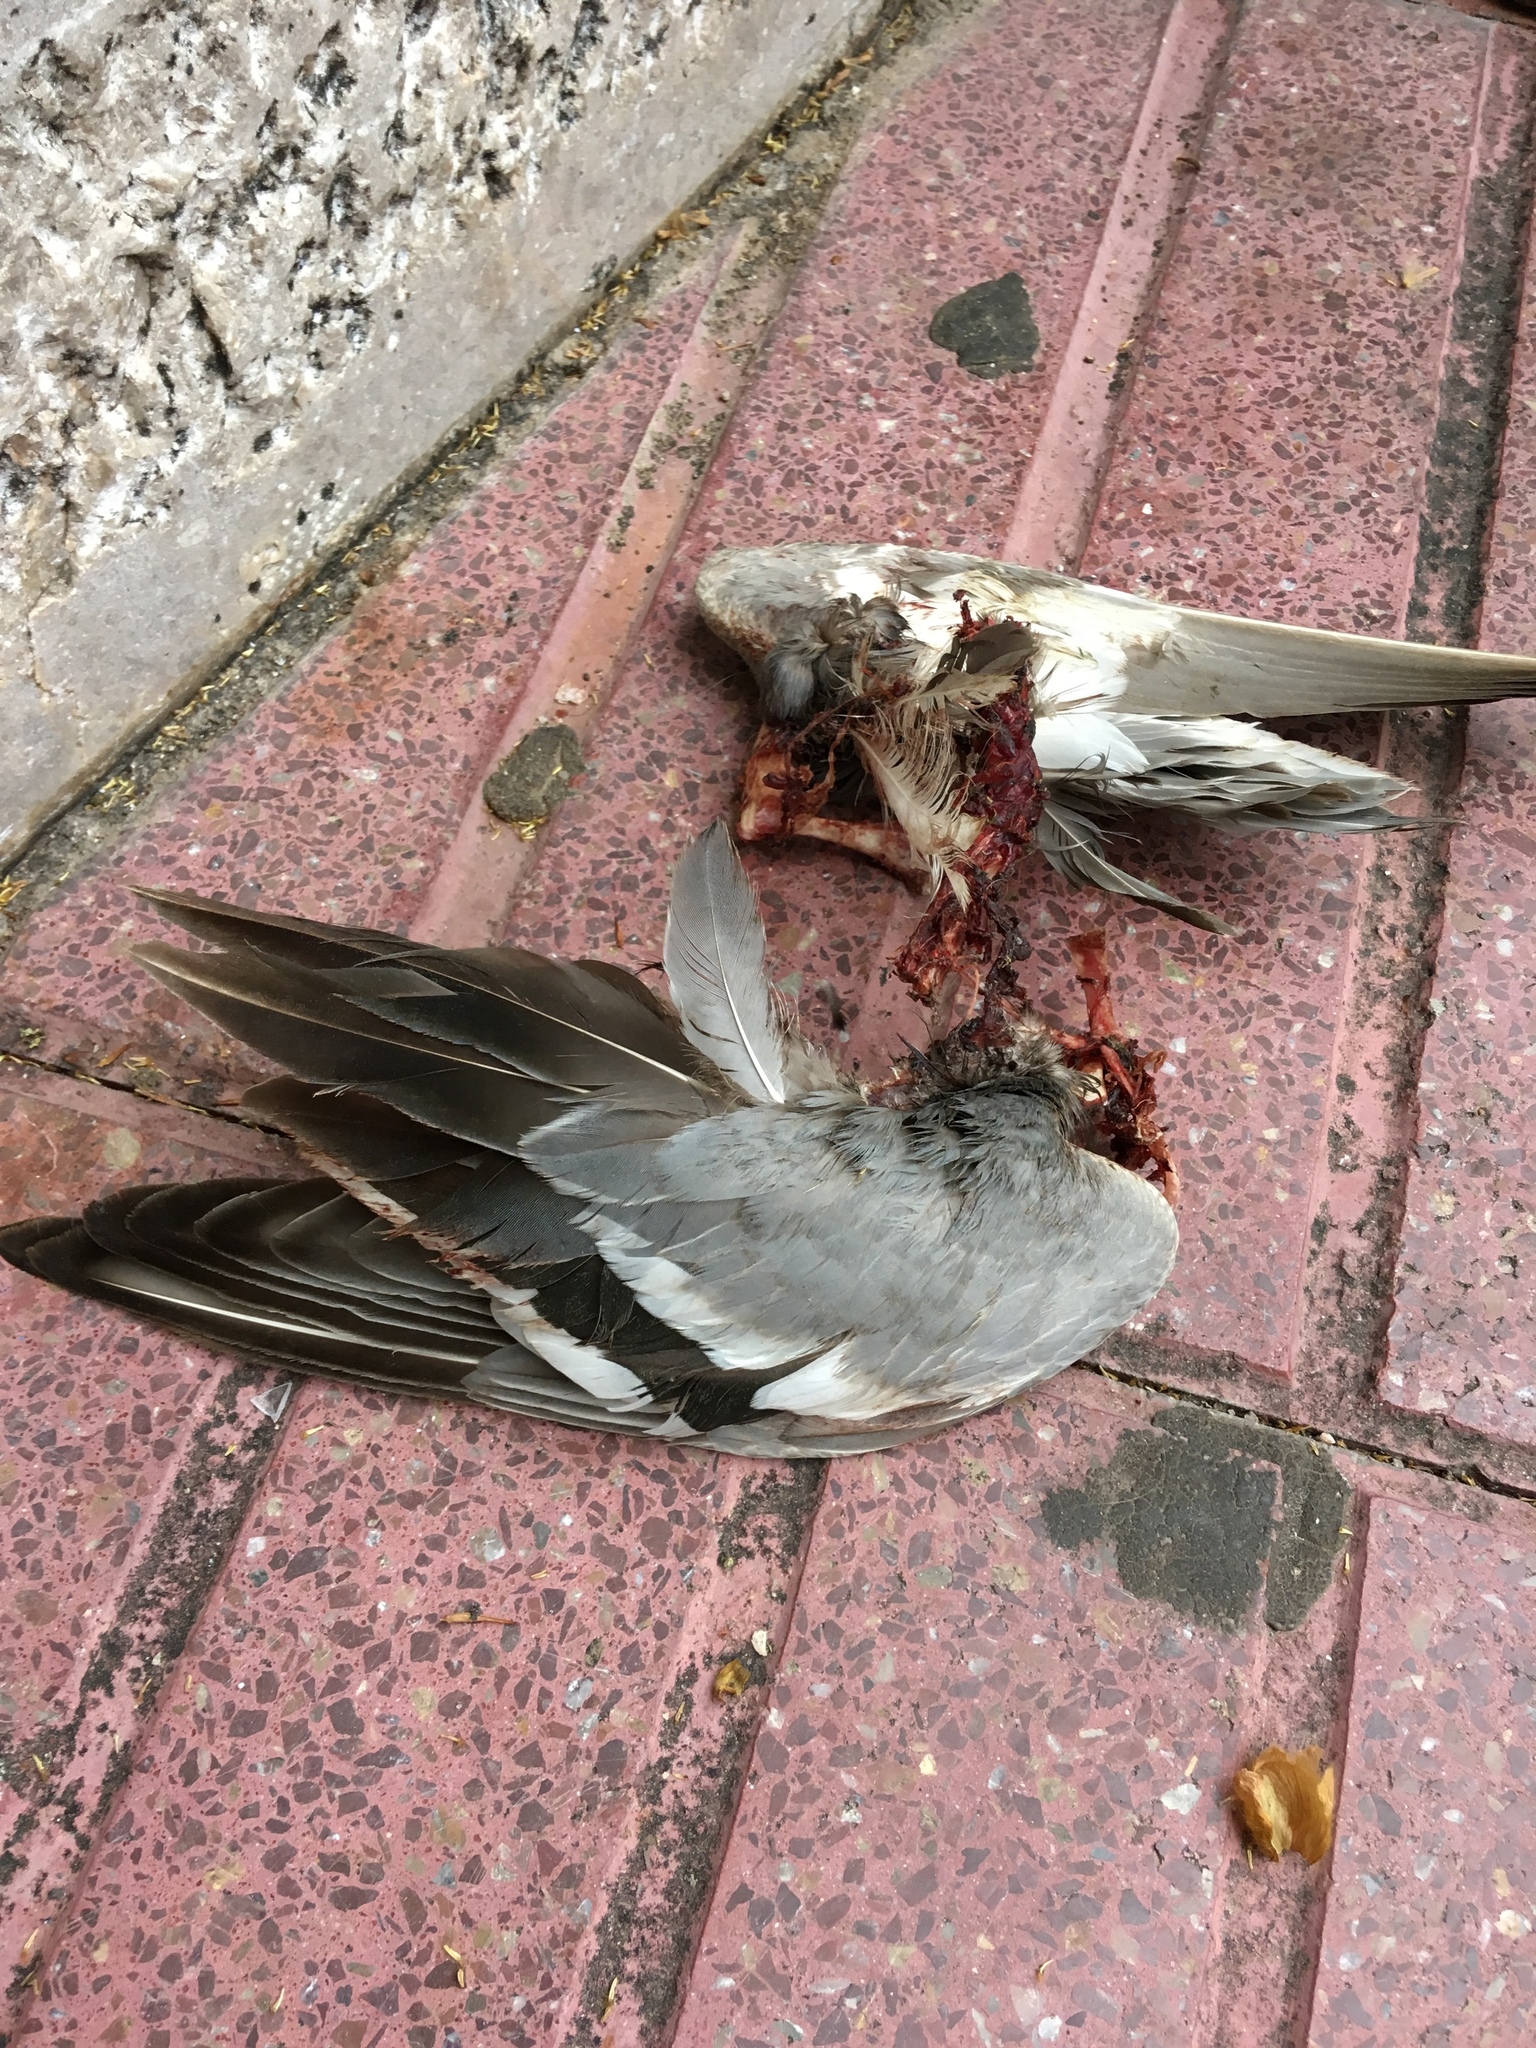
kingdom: Animalia
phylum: Chordata
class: Aves
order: Anseriformes
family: Anatidae
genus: Spatula
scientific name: Spatula querquedula
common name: Garganey
